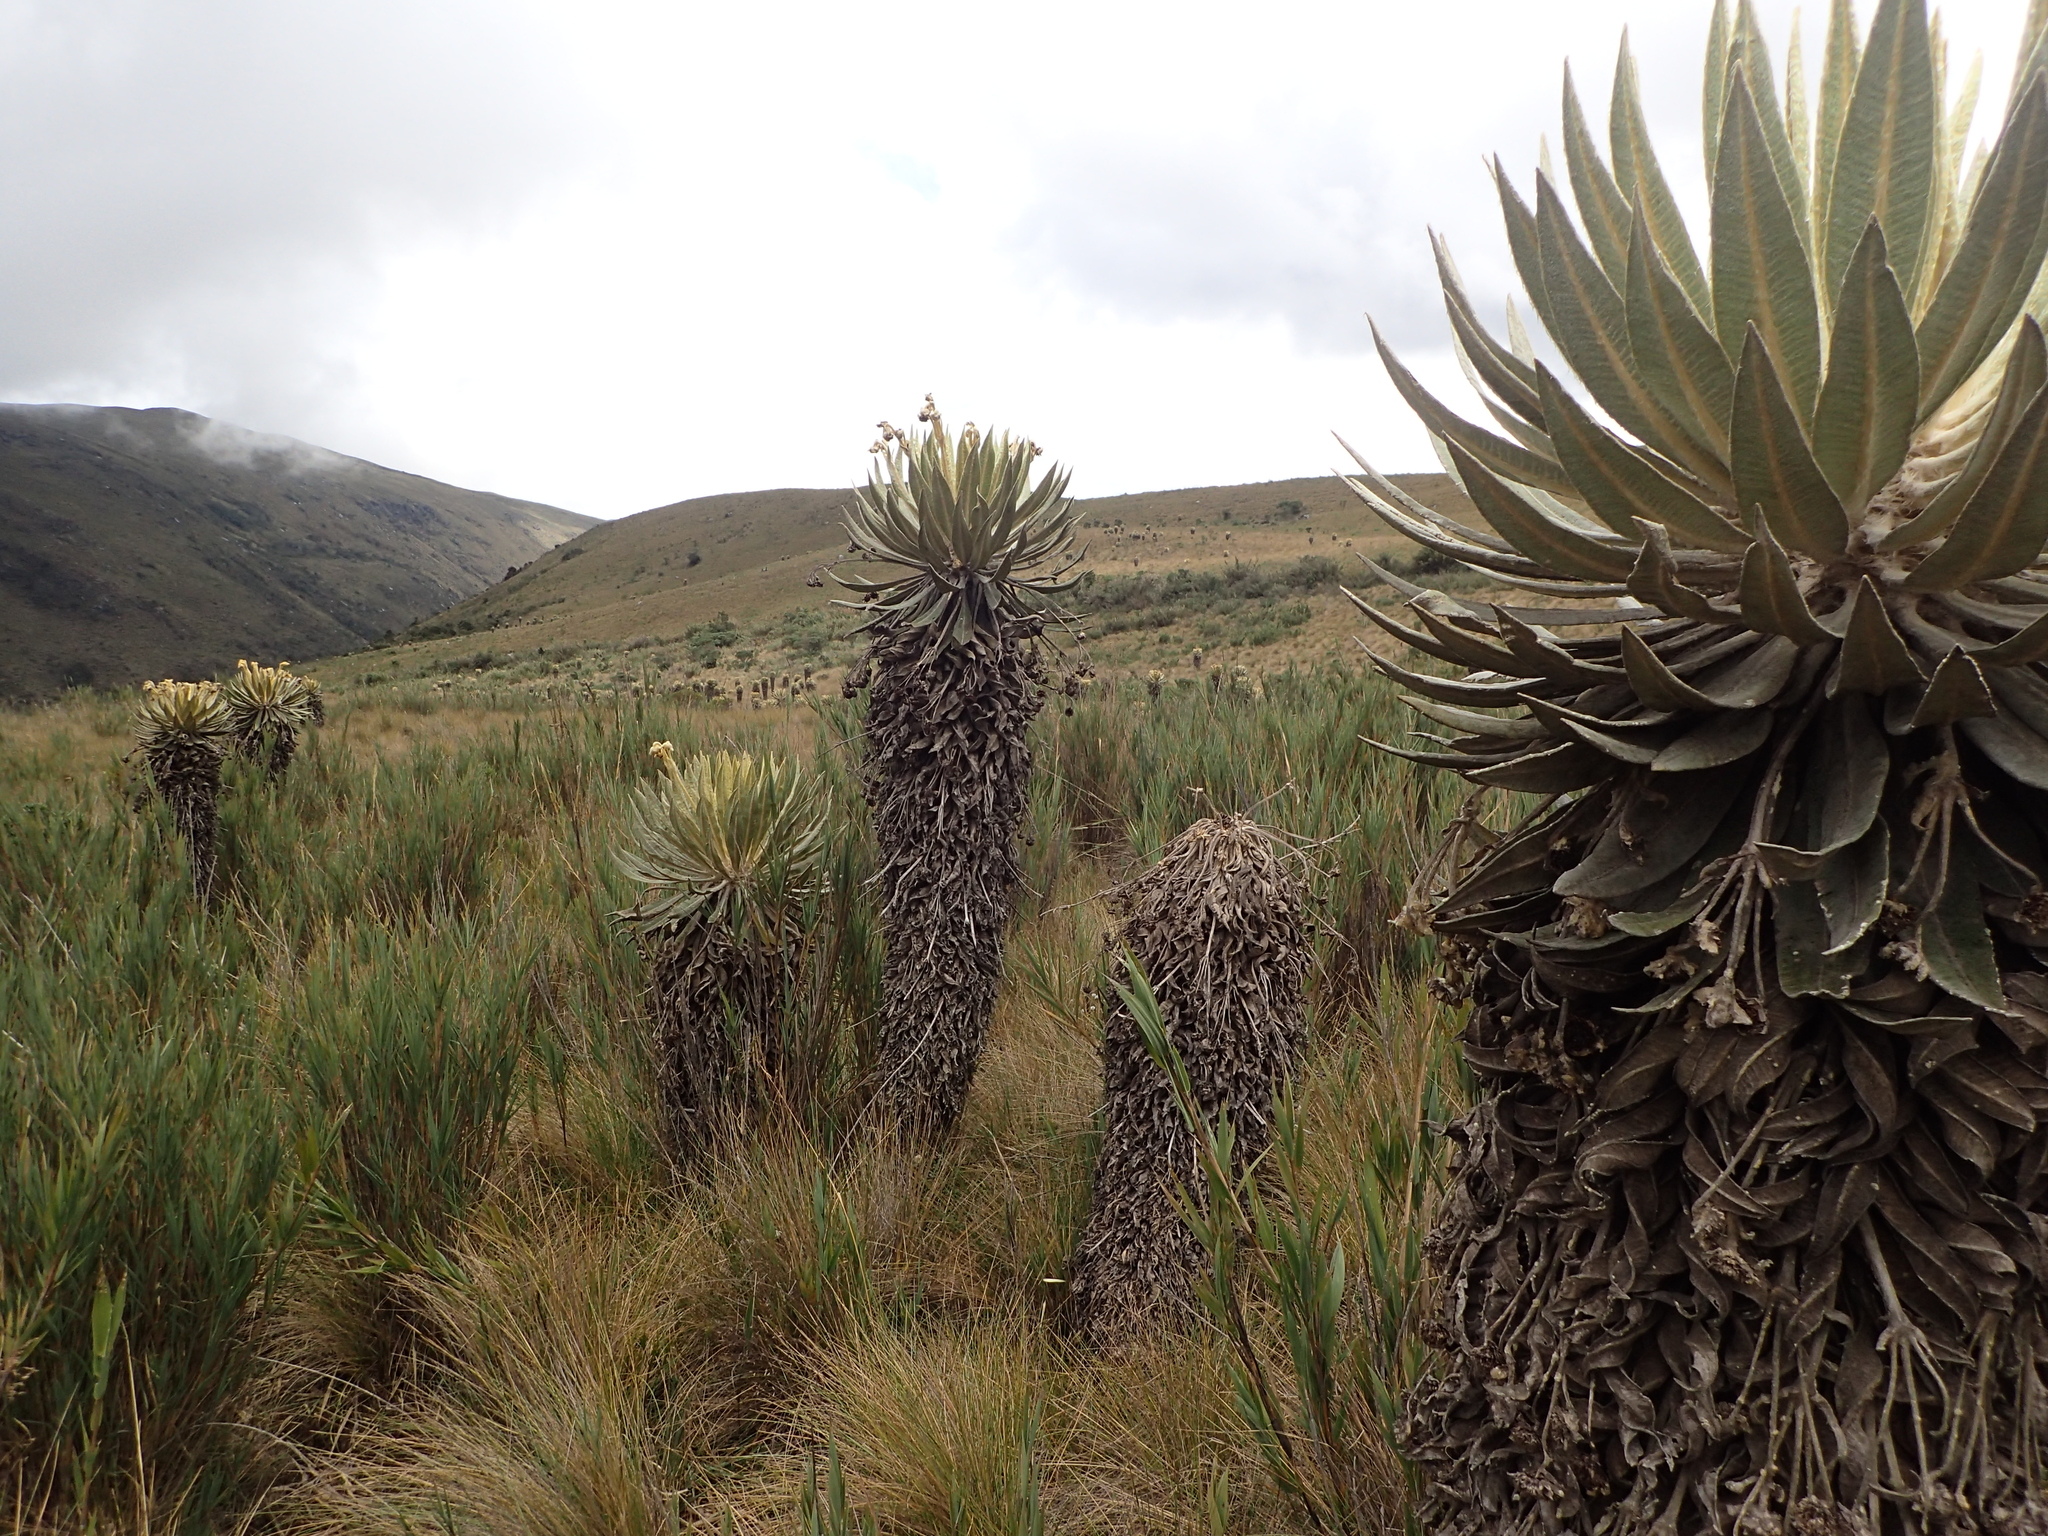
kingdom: Plantae
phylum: Tracheophyta
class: Magnoliopsida
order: Asterales
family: Asteraceae
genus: Espeletia
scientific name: Espeletia murilloi
